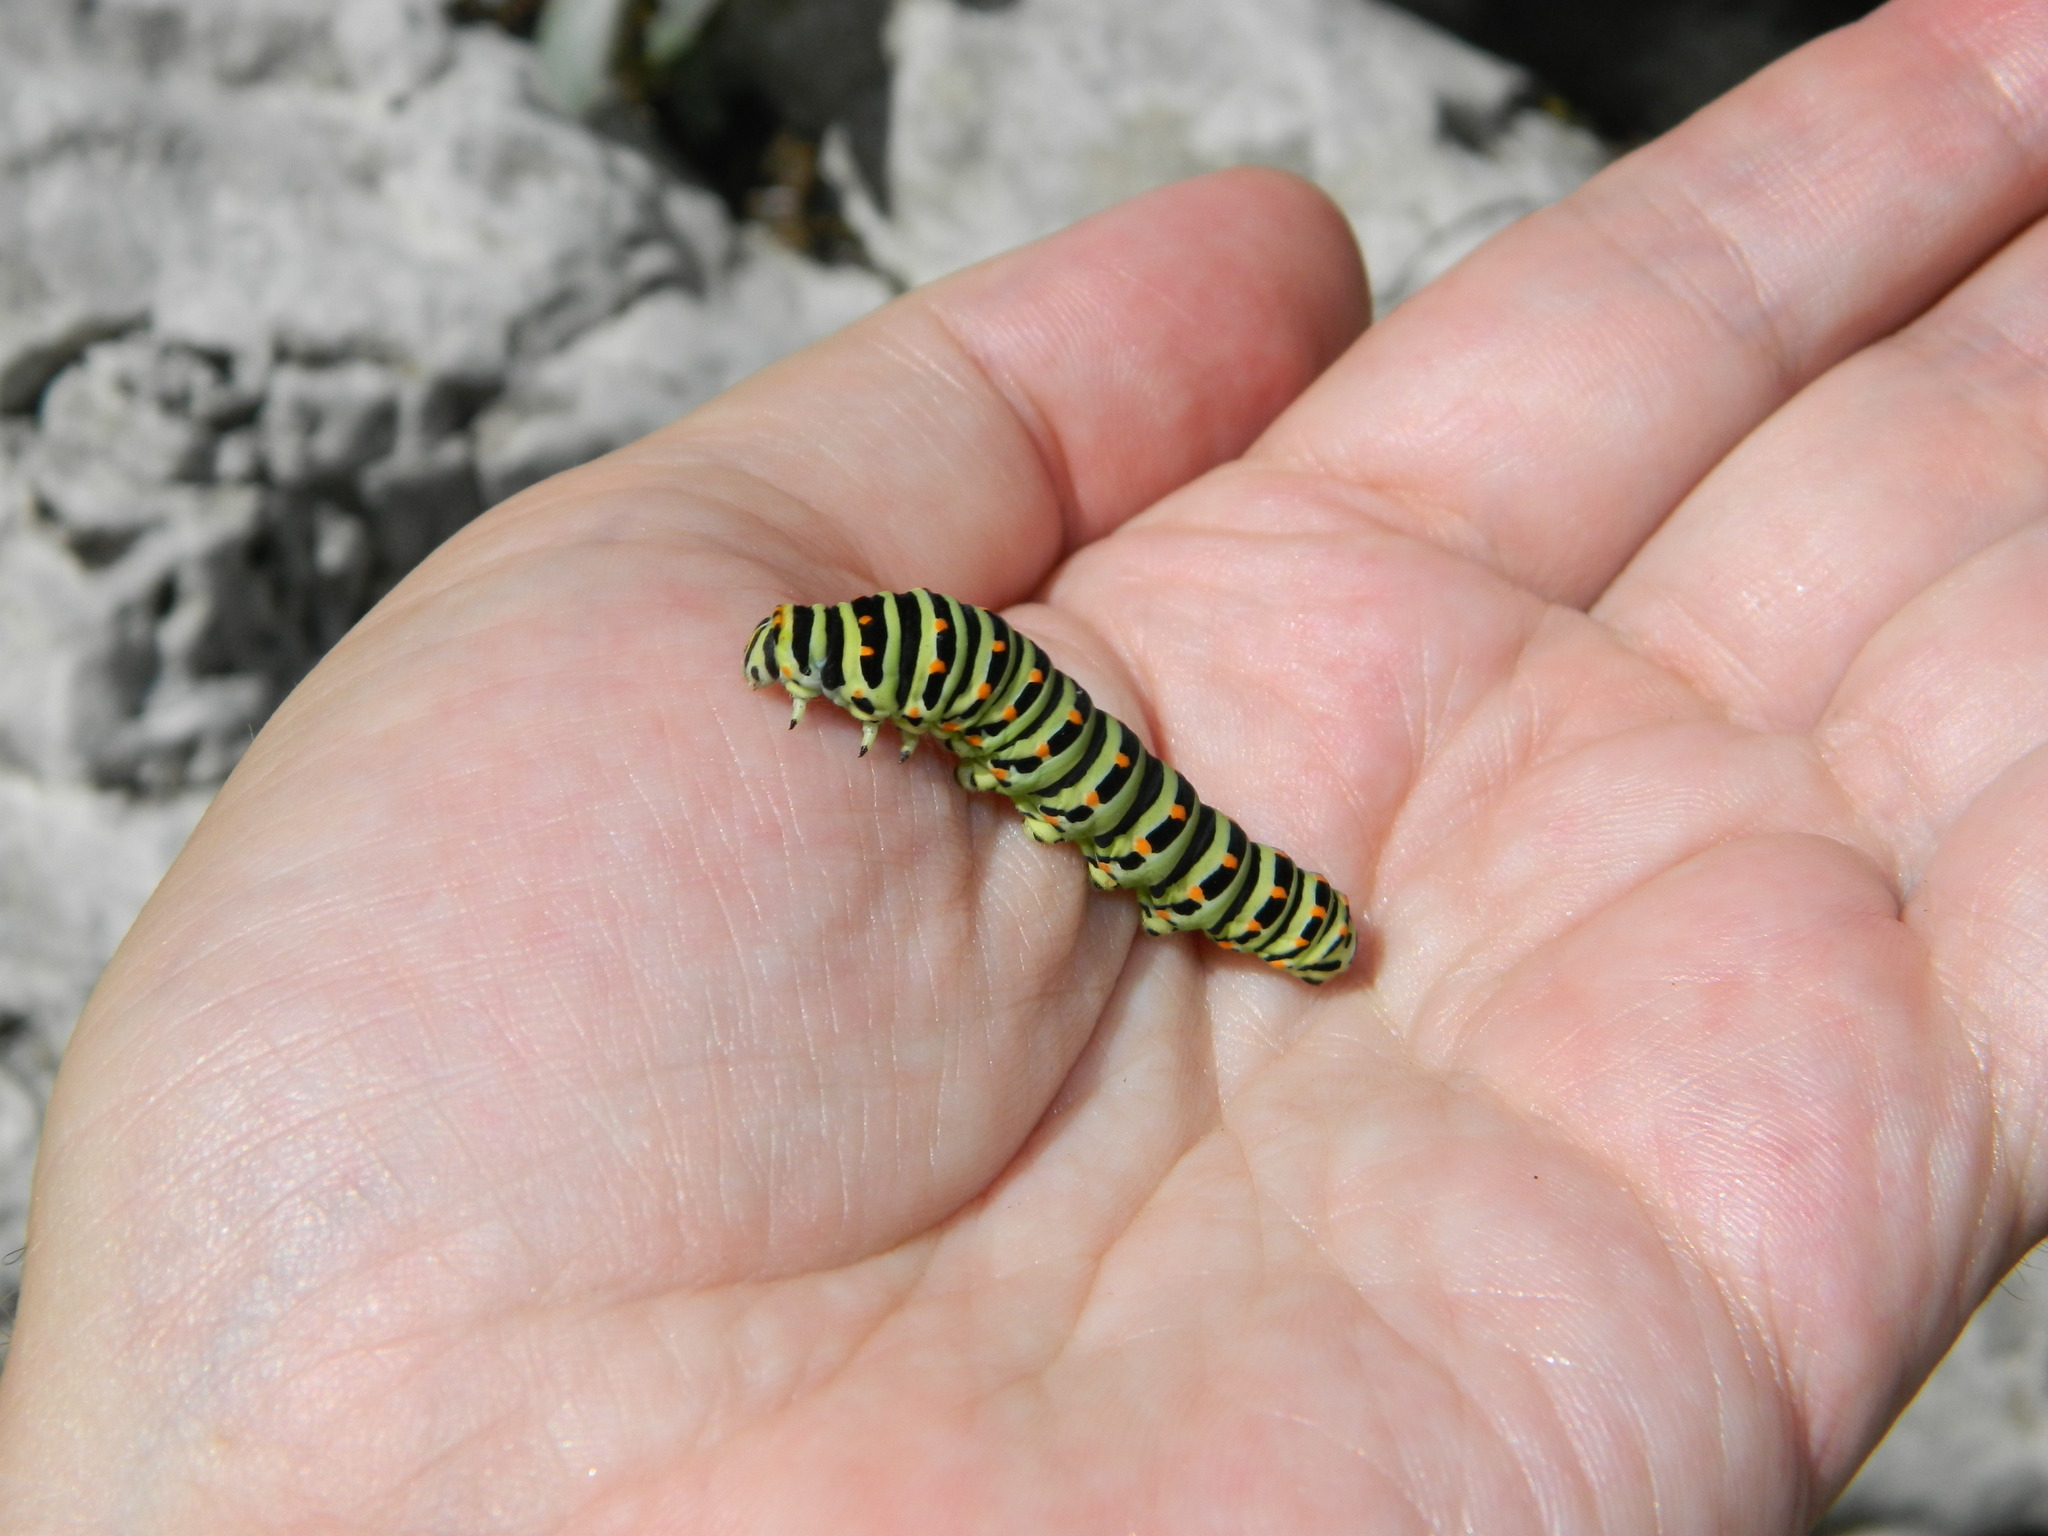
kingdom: Animalia
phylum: Arthropoda
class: Insecta
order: Lepidoptera
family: Papilionidae
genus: Papilio
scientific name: Papilio machaon
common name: Swallowtail
